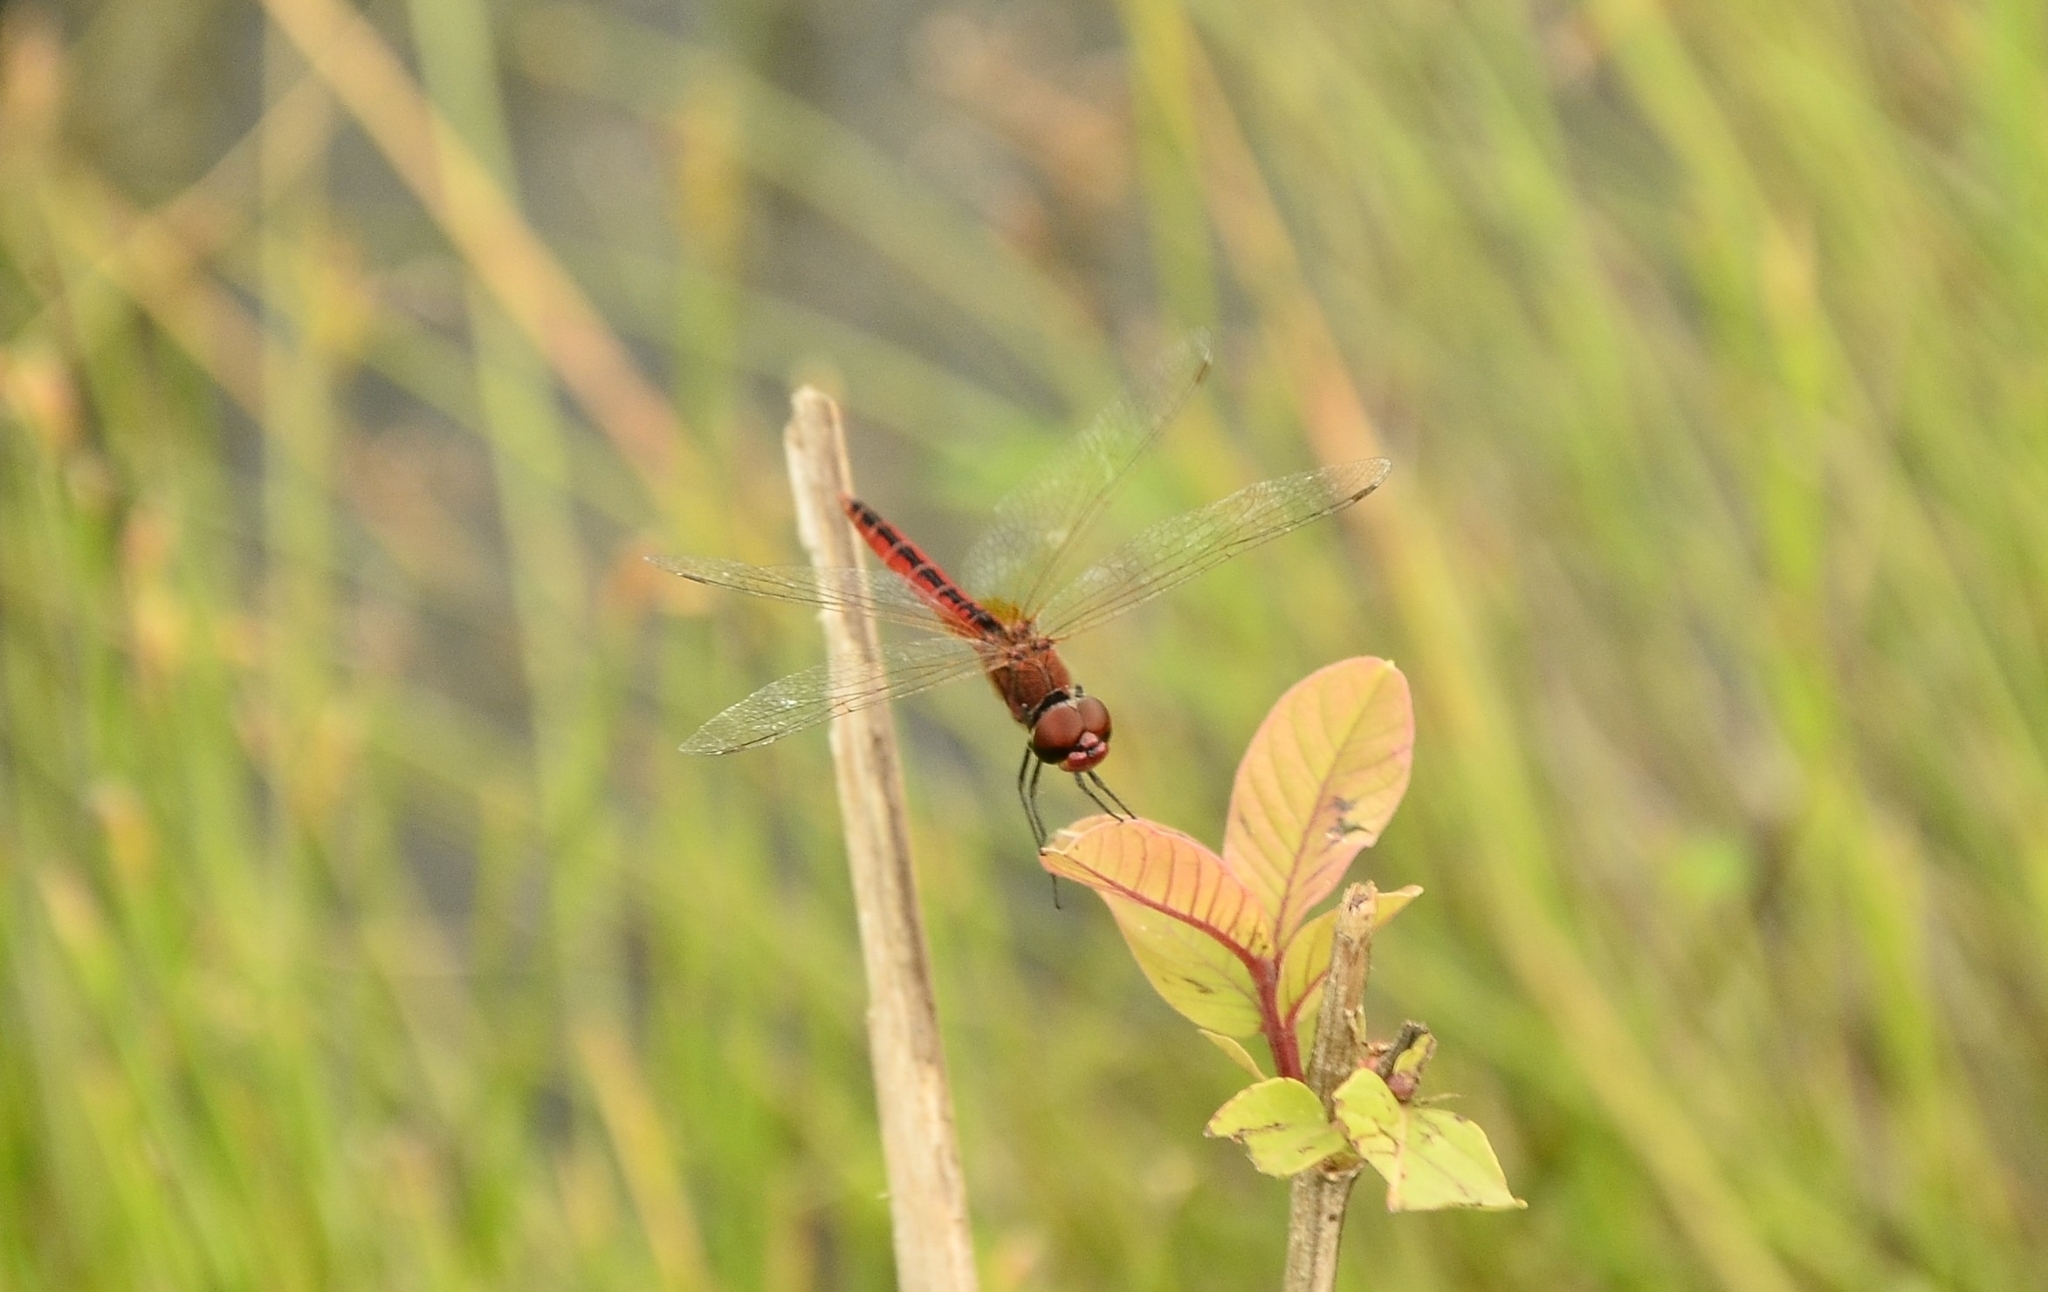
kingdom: Animalia
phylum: Arthropoda
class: Insecta
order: Odonata
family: Libellulidae
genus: Macrodiplax
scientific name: Macrodiplax cora
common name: Coastal glider
